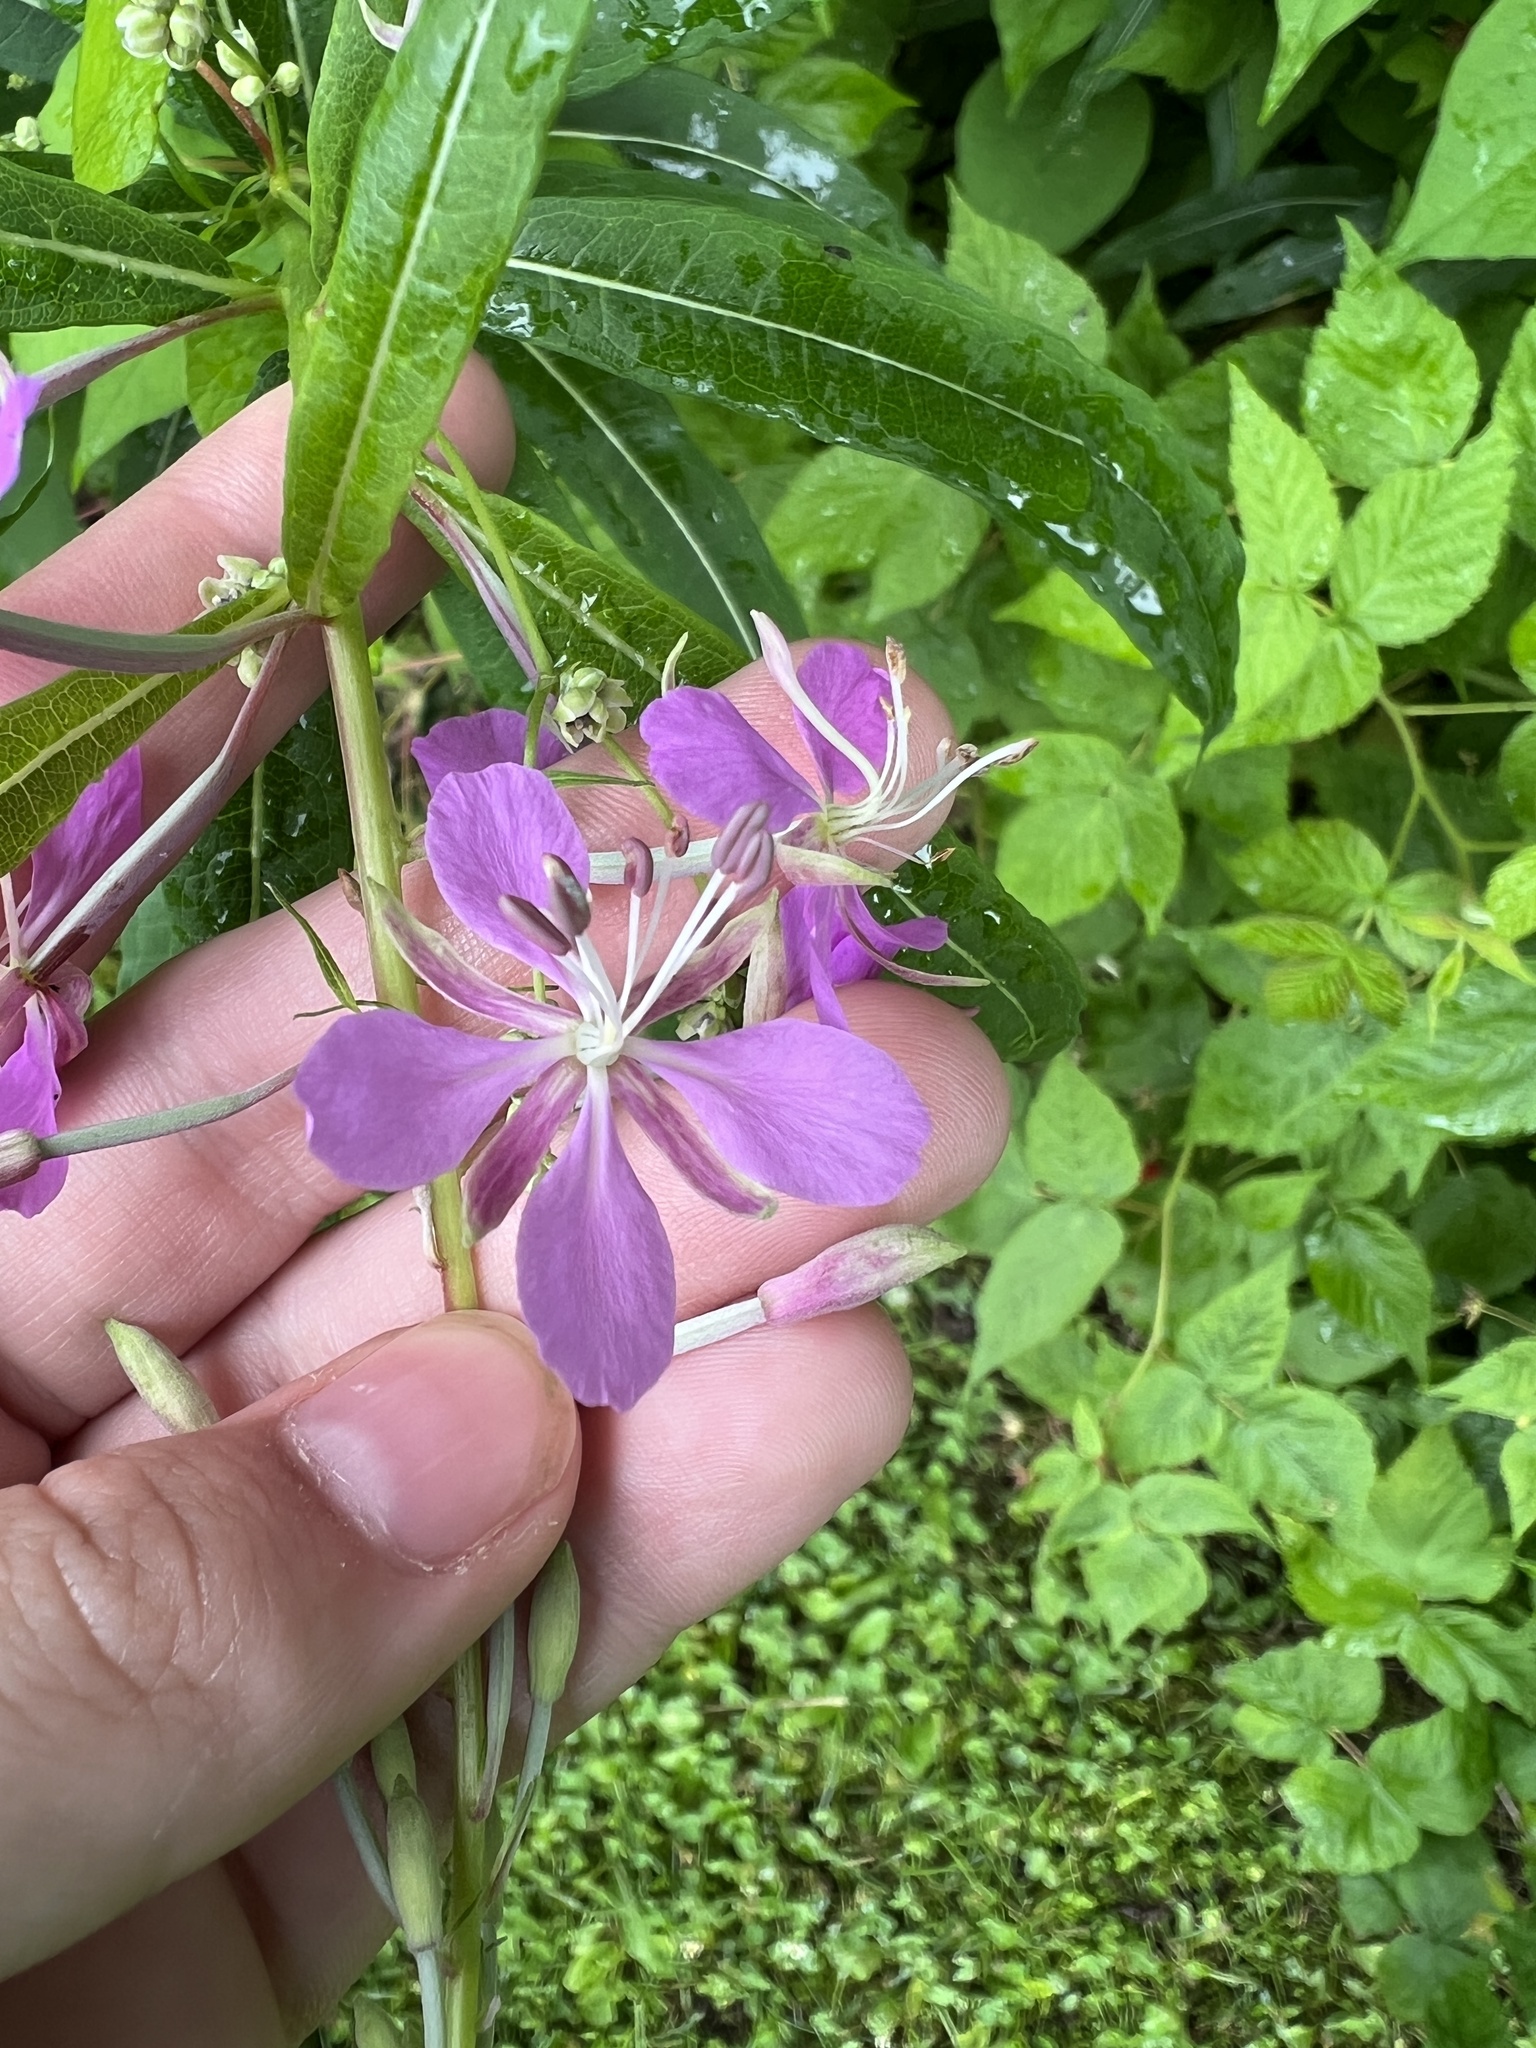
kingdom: Plantae
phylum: Tracheophyta
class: Magnoliopsida
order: Myrtales
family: Onagraceae
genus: Chamaenerion
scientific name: Chamaenerion angustifolium
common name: Fireweed
